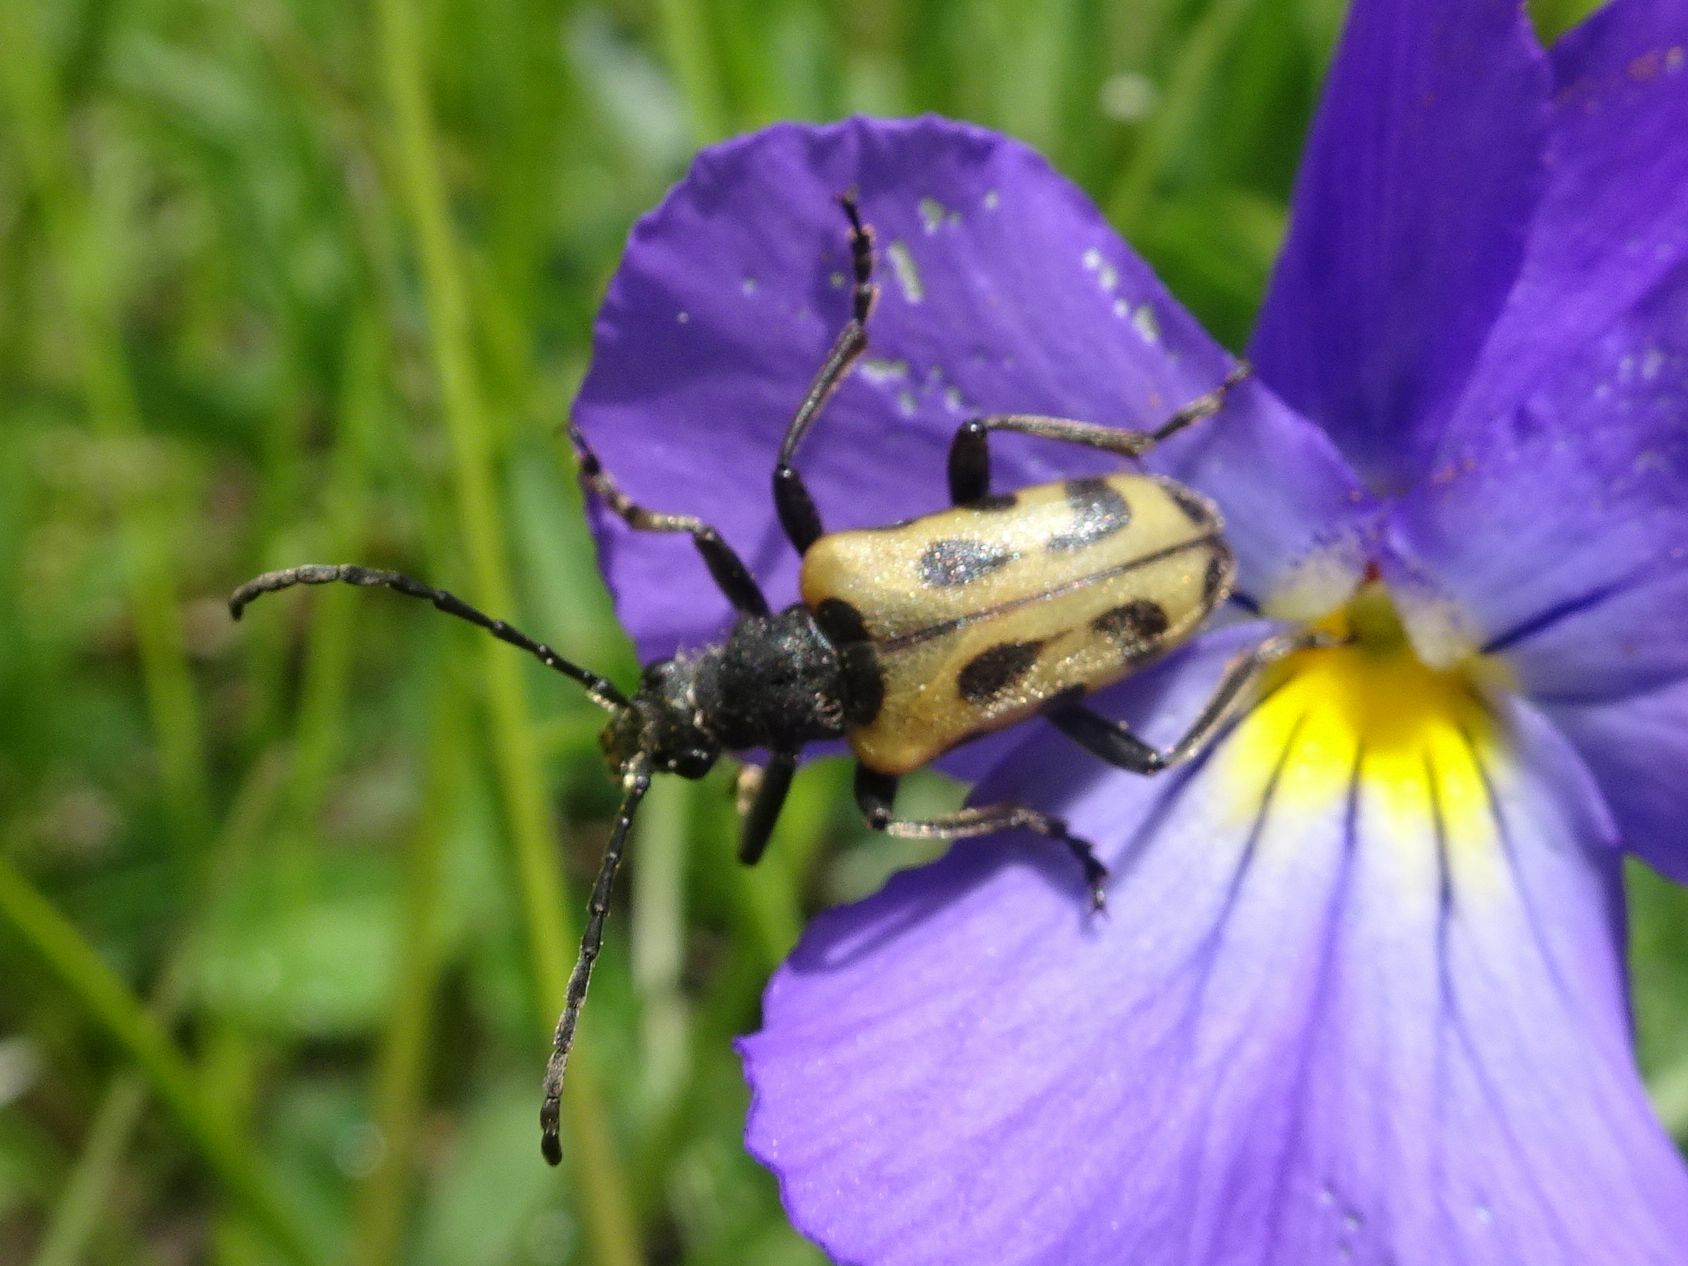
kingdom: Animalia
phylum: Arthropoda
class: Insecta
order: Coleoptera
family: Cerambycidae
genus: Brachyta
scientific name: Brachyta interrogationis
